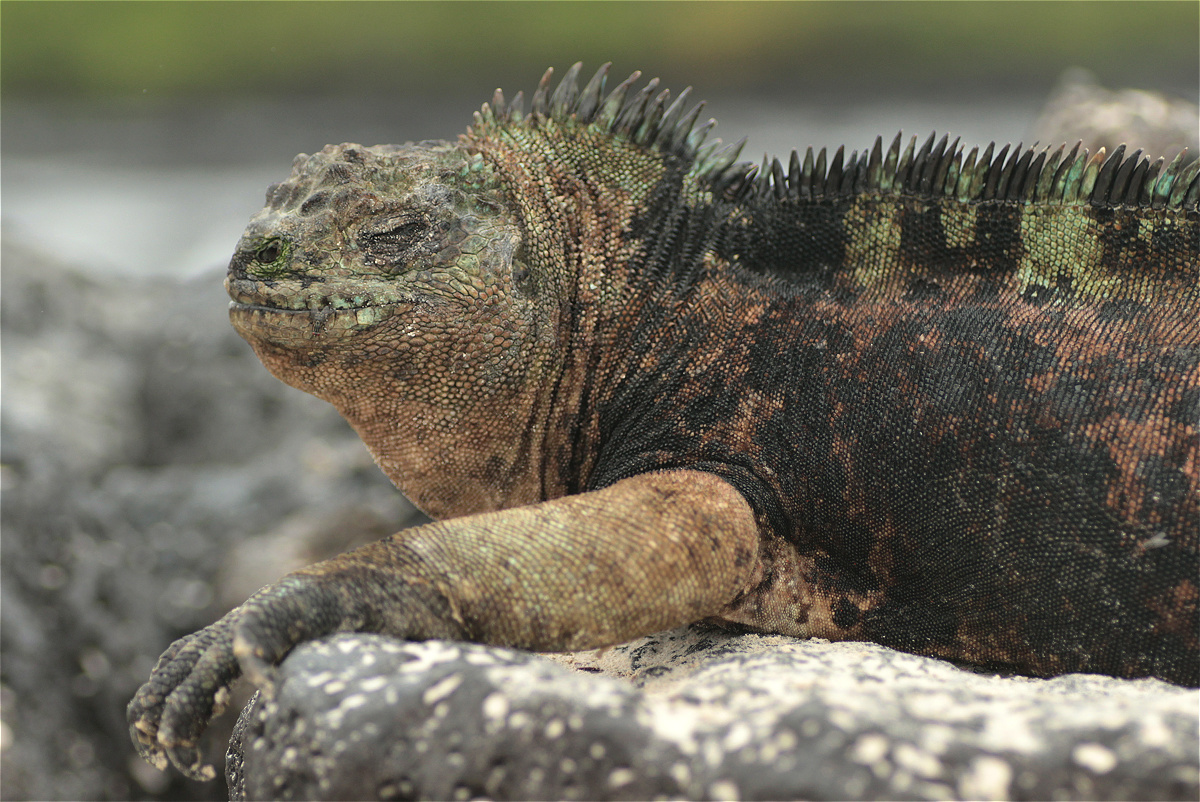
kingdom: Animalia
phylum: Chordata
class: Squamata
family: Iguanidae
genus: Amblyrhynchus
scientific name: Amblyrhynchus cristatus
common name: Marine iguana
